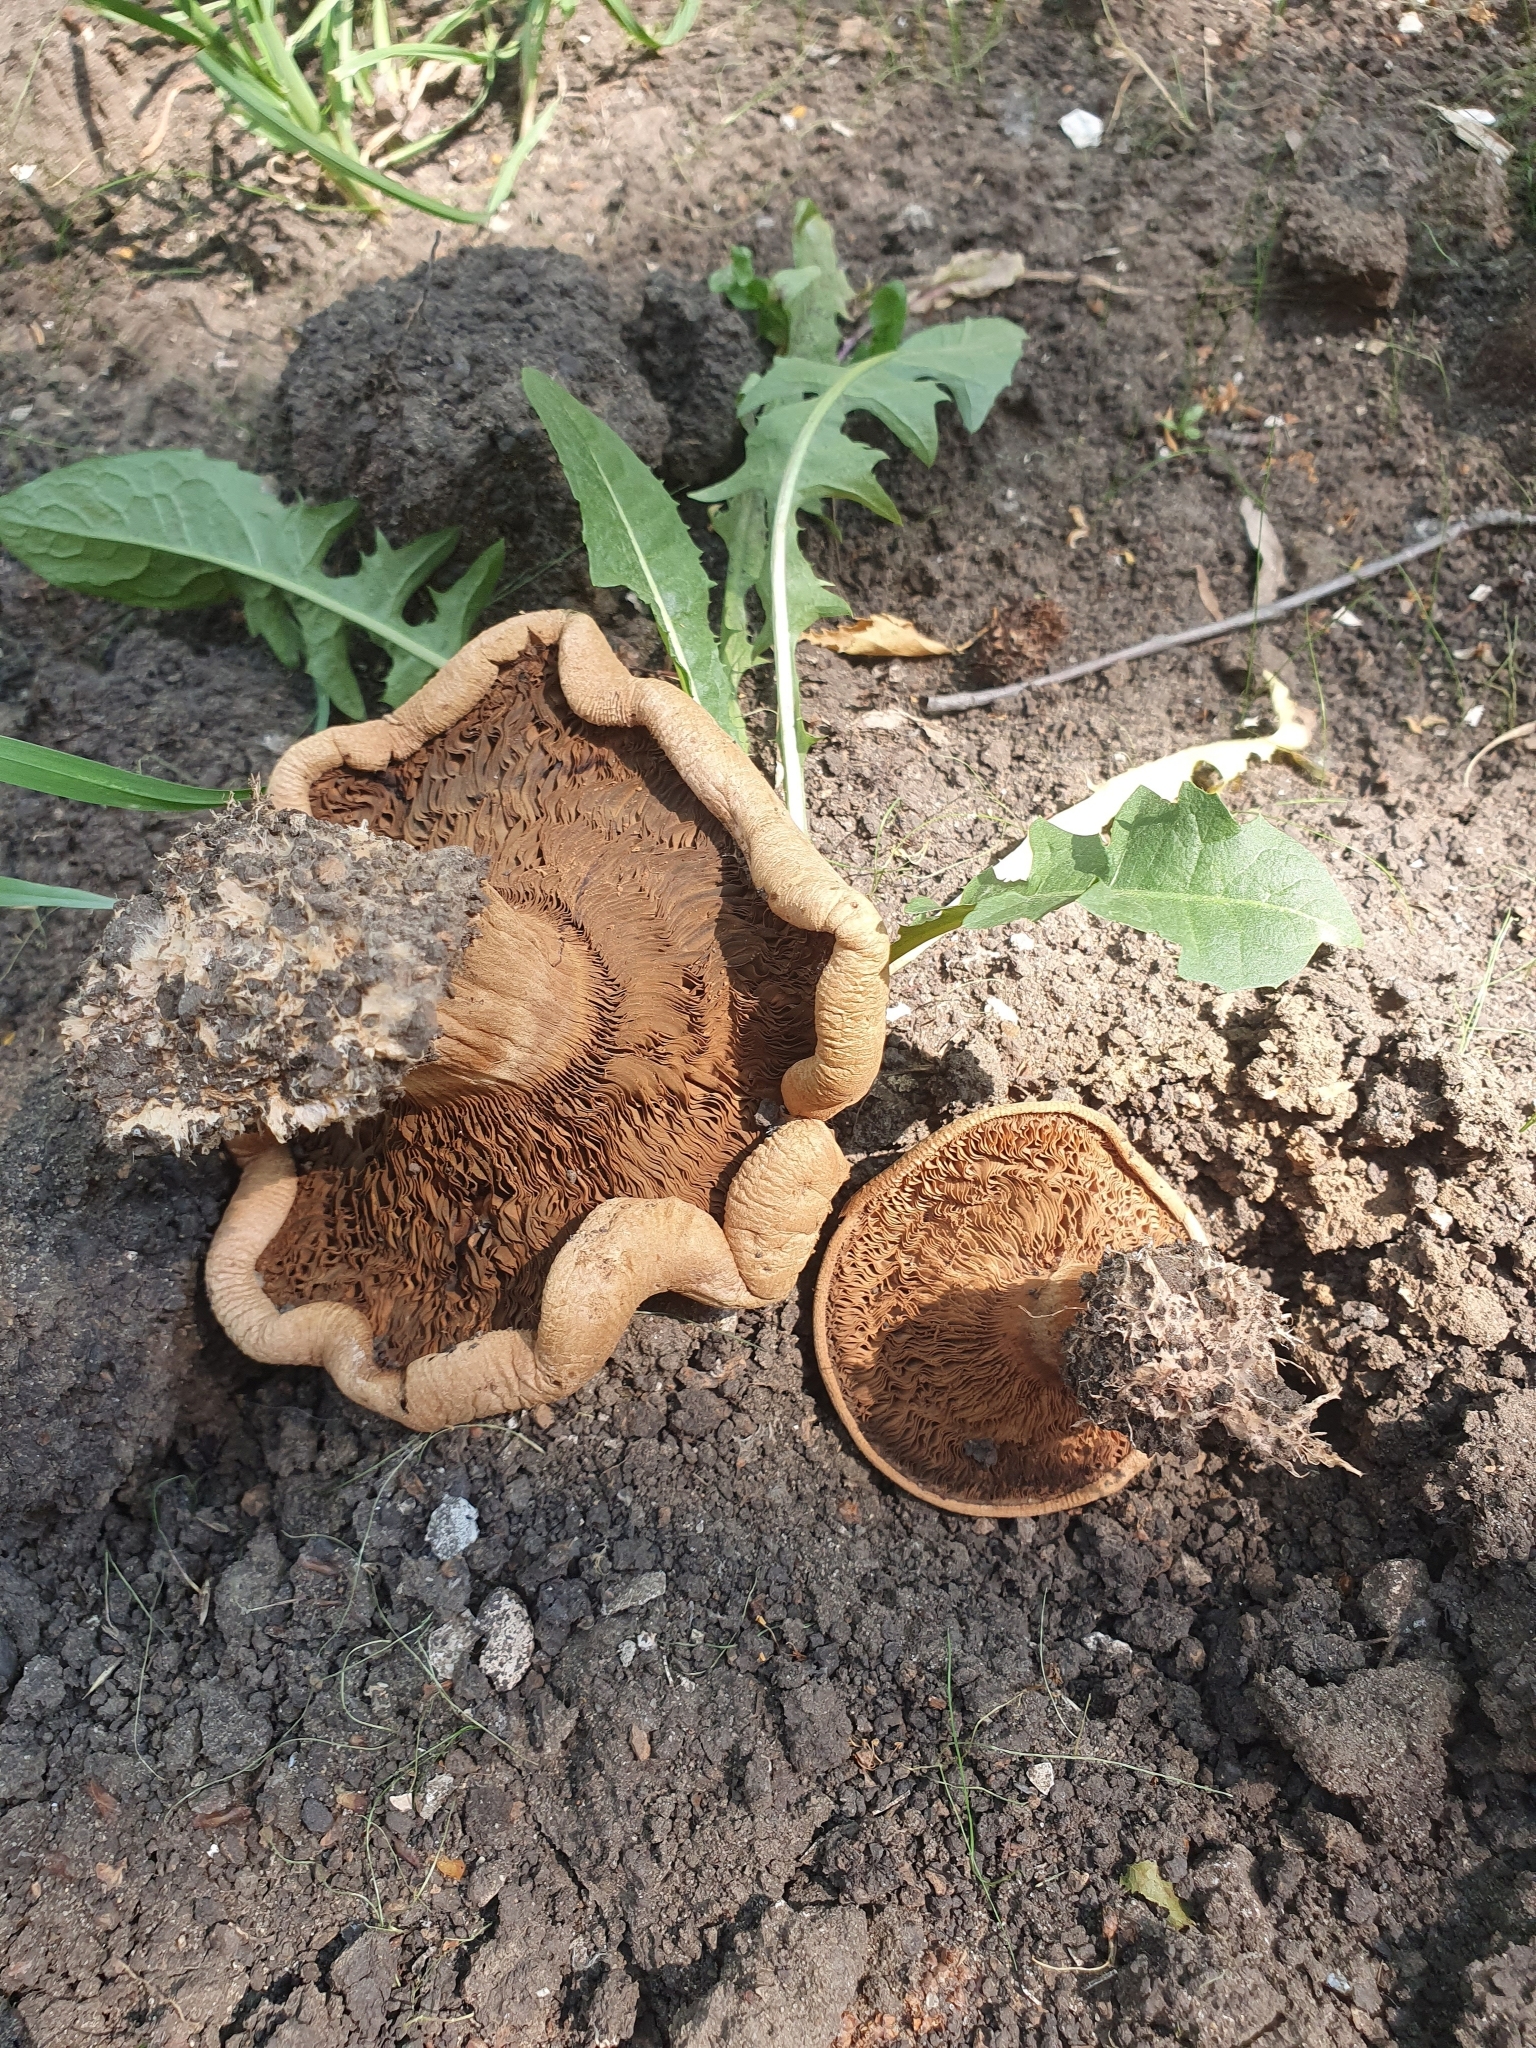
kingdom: Fungi
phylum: Basidiomycota
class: Agaricomycetes
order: Boletales
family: Paxillaceae
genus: Paxillus
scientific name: Paxillus involutus
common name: Brown roll rim
